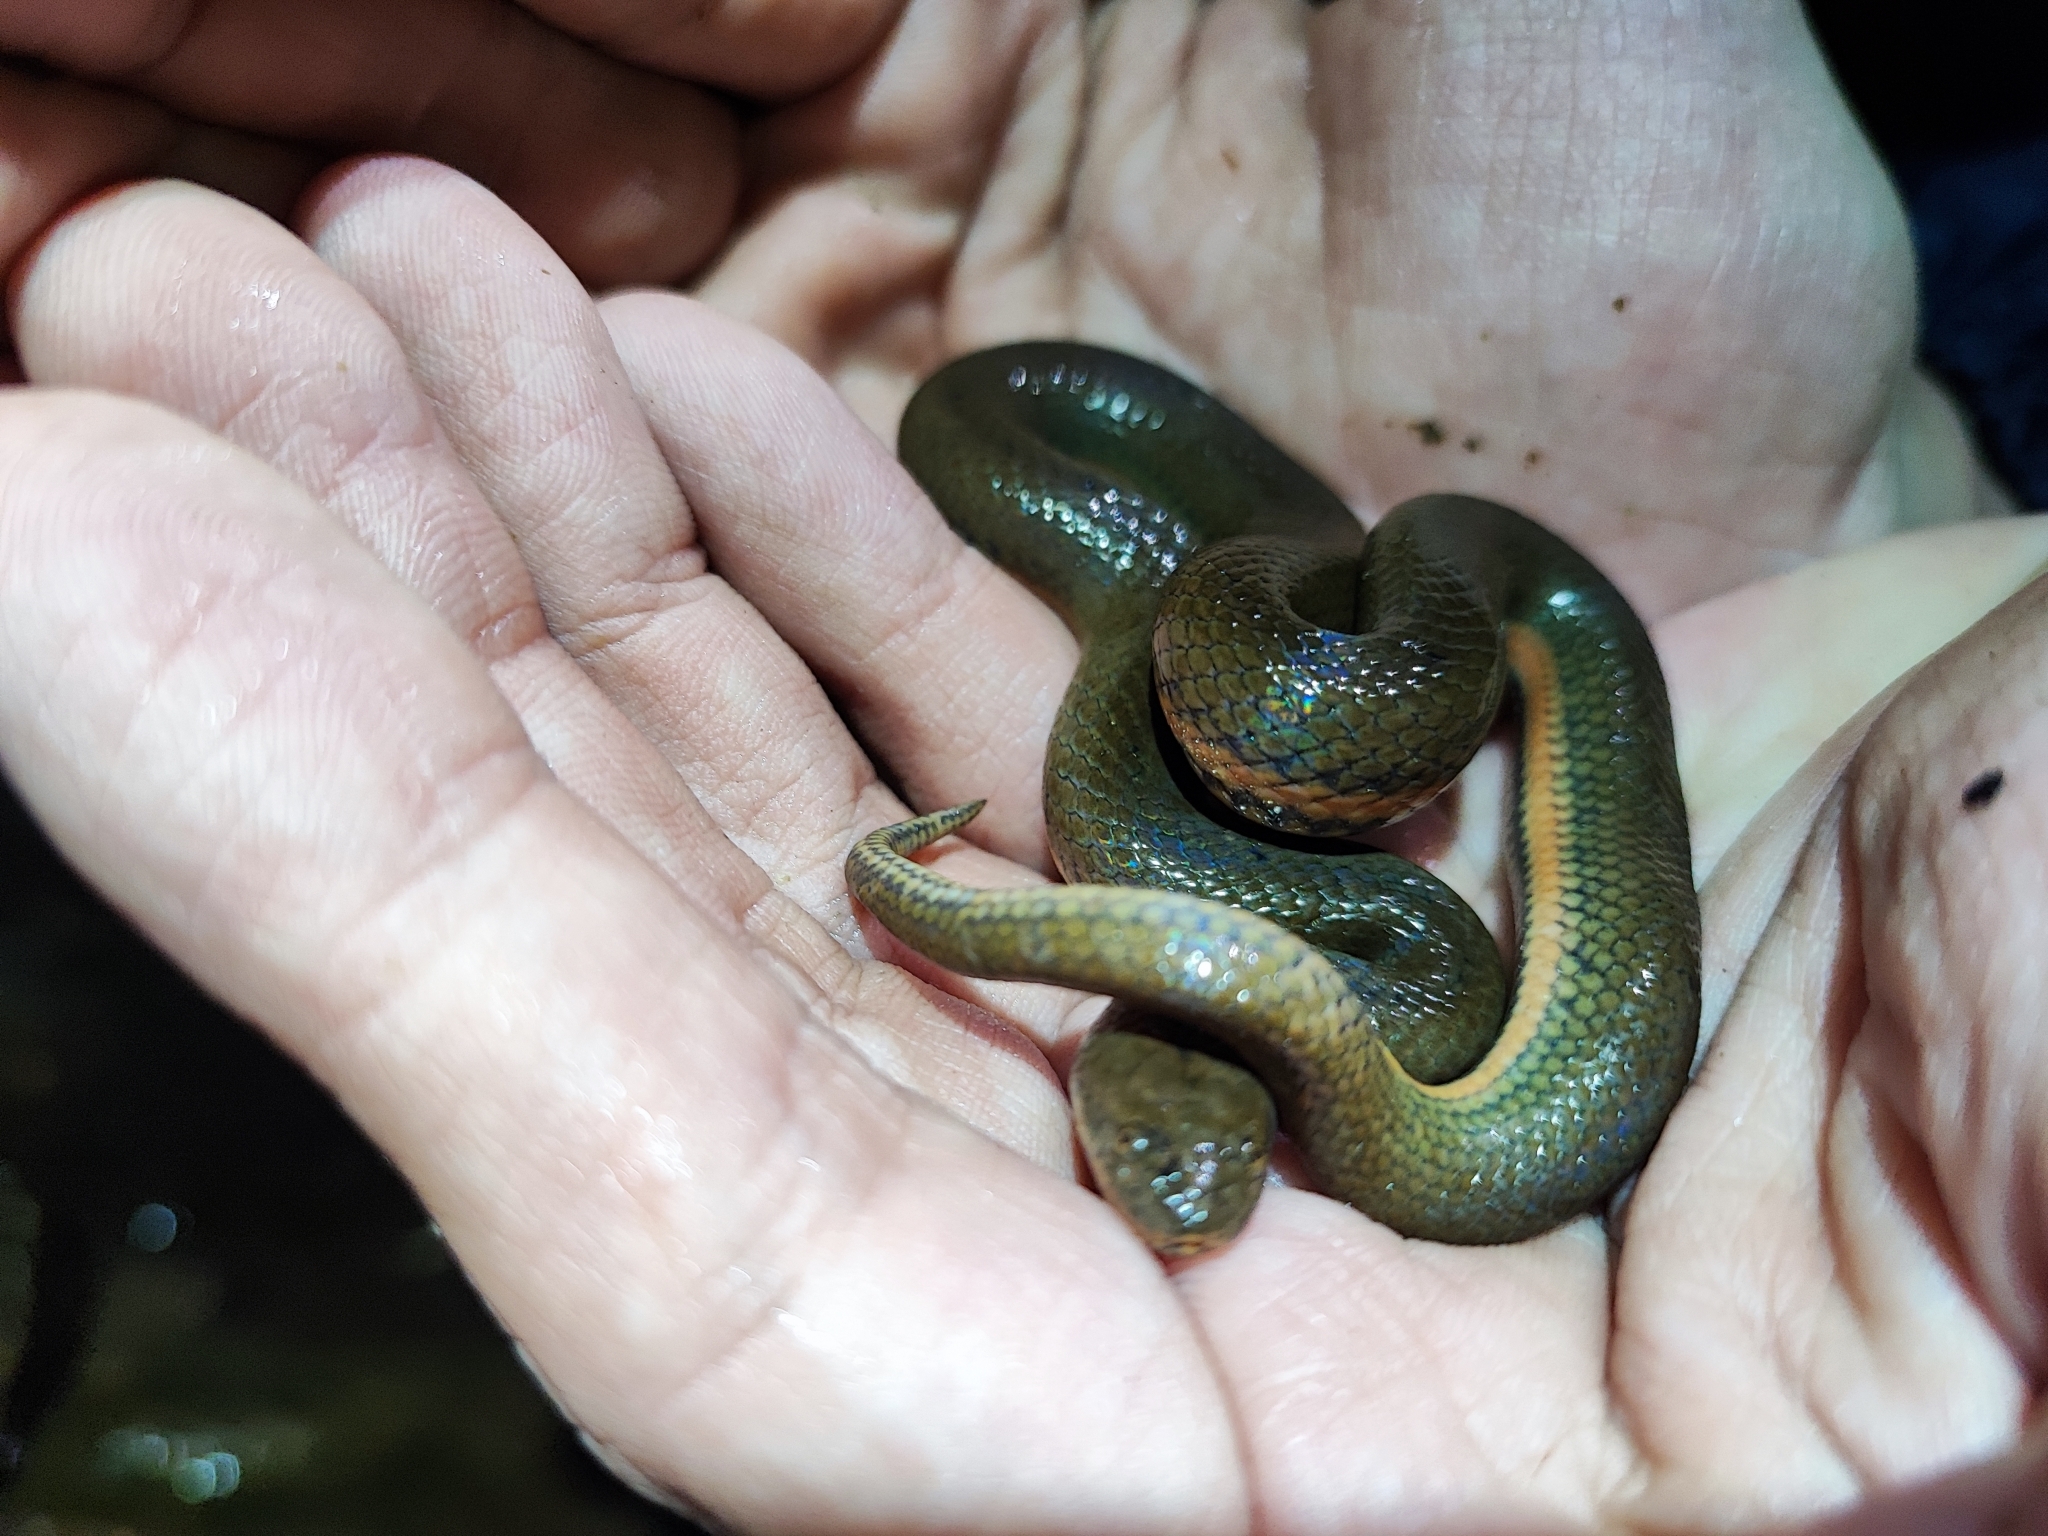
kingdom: Animalia
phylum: Chordata
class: Squamata
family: Homalopsidae
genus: Hypsiscopus
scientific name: Hypsiscopus
